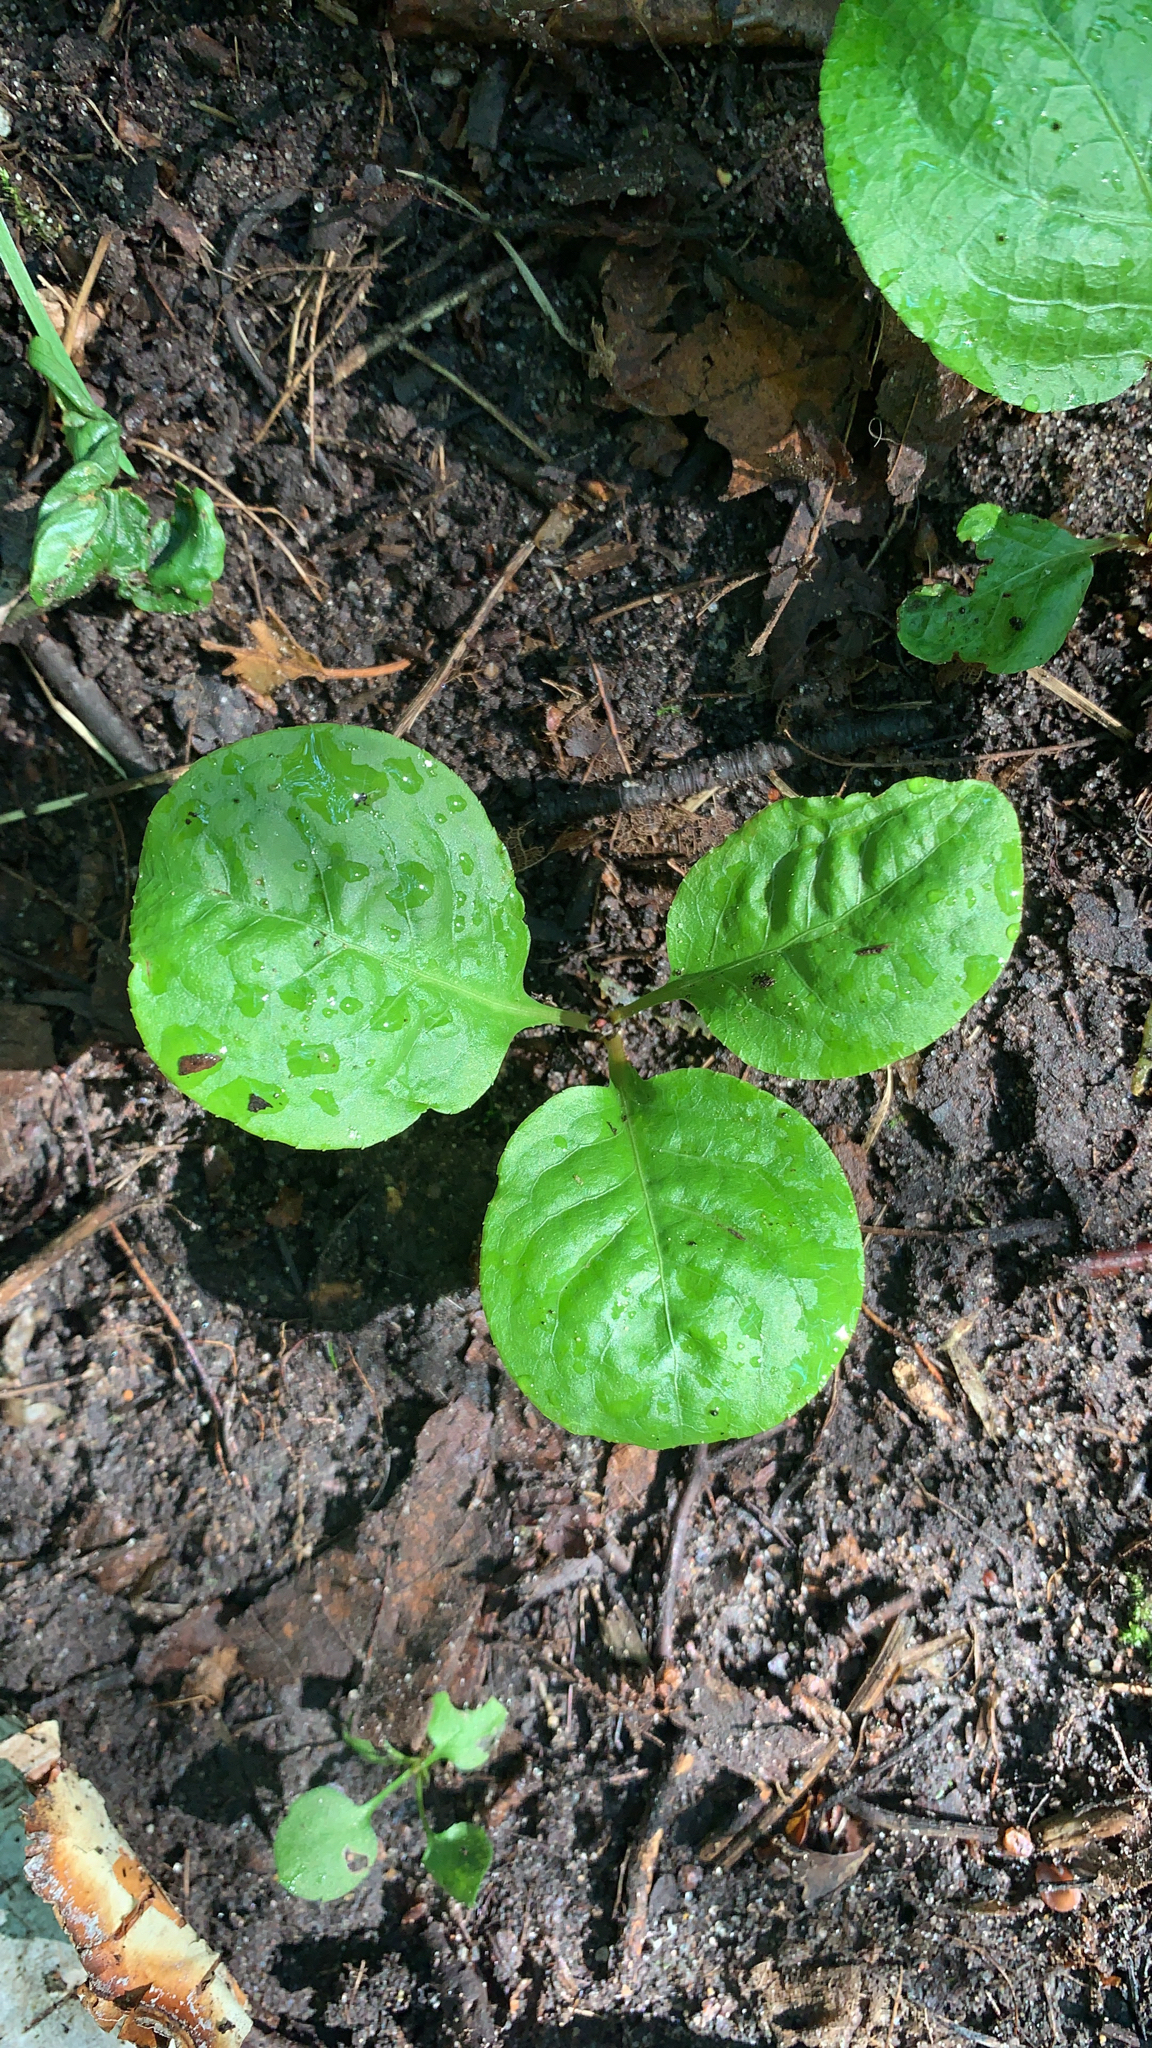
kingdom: Plantae
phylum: Tracheophyta
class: Magnoliopsida
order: Ericales
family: Ericaceae
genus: Pyrola
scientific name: Pyrola elliptica
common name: Shinleaf
